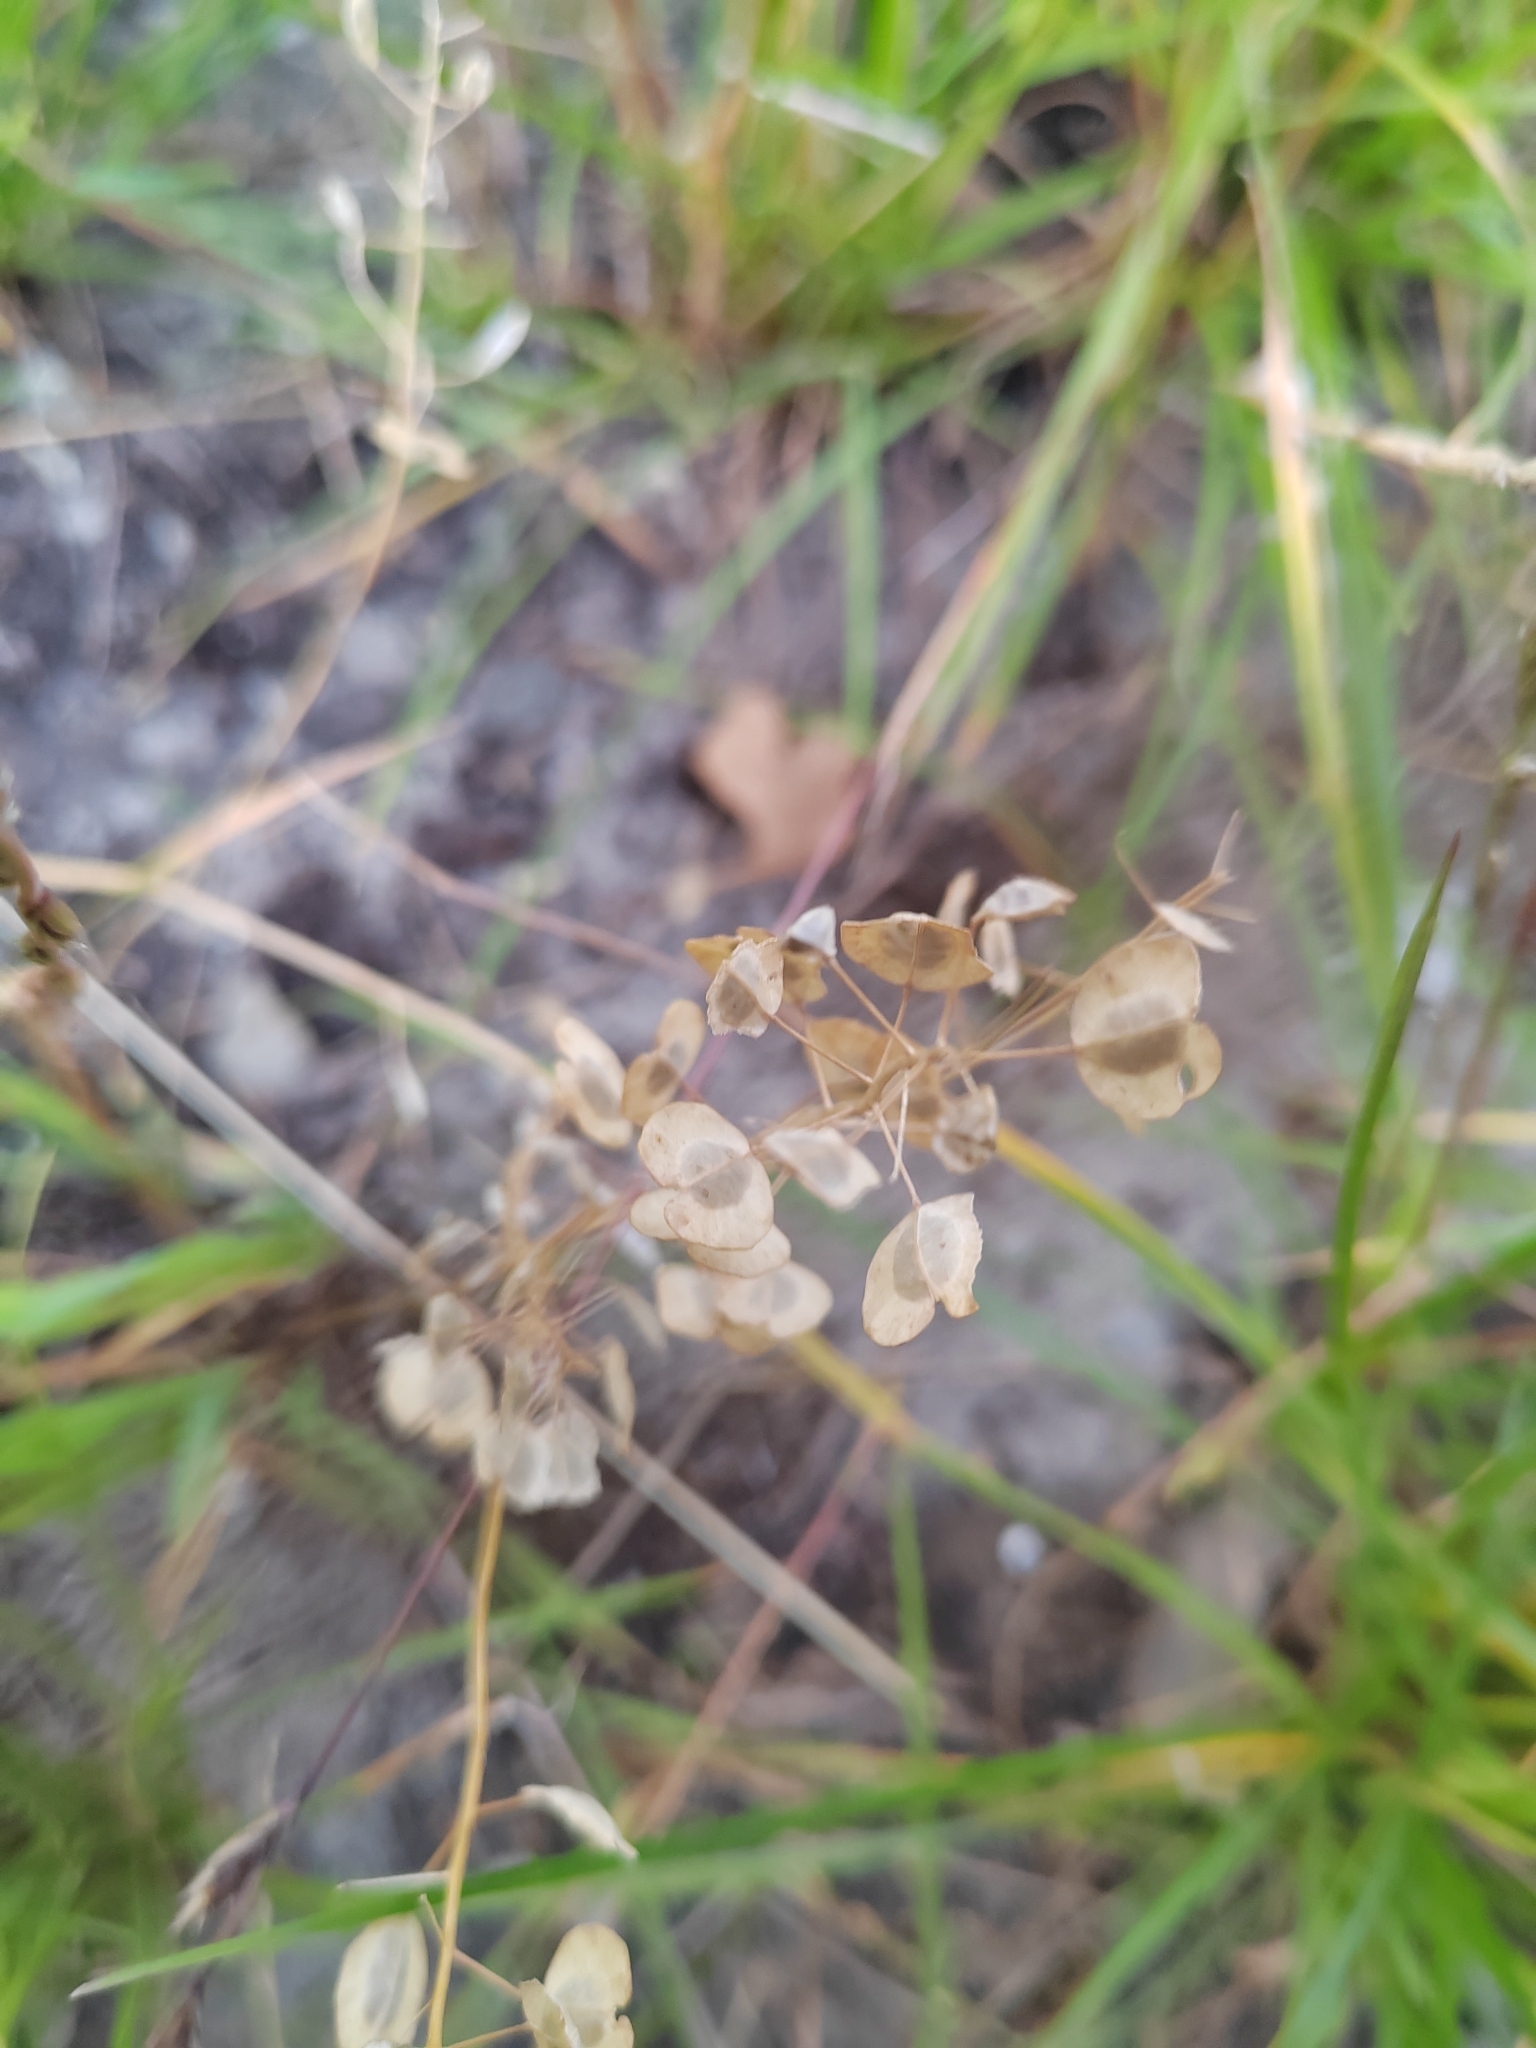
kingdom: Plantae
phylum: Tracheophyta
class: Magnoliopsida
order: Brassicales
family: Brassicaceae
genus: Thlaspi
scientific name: Thlaspi arvense
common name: Field pennycress
